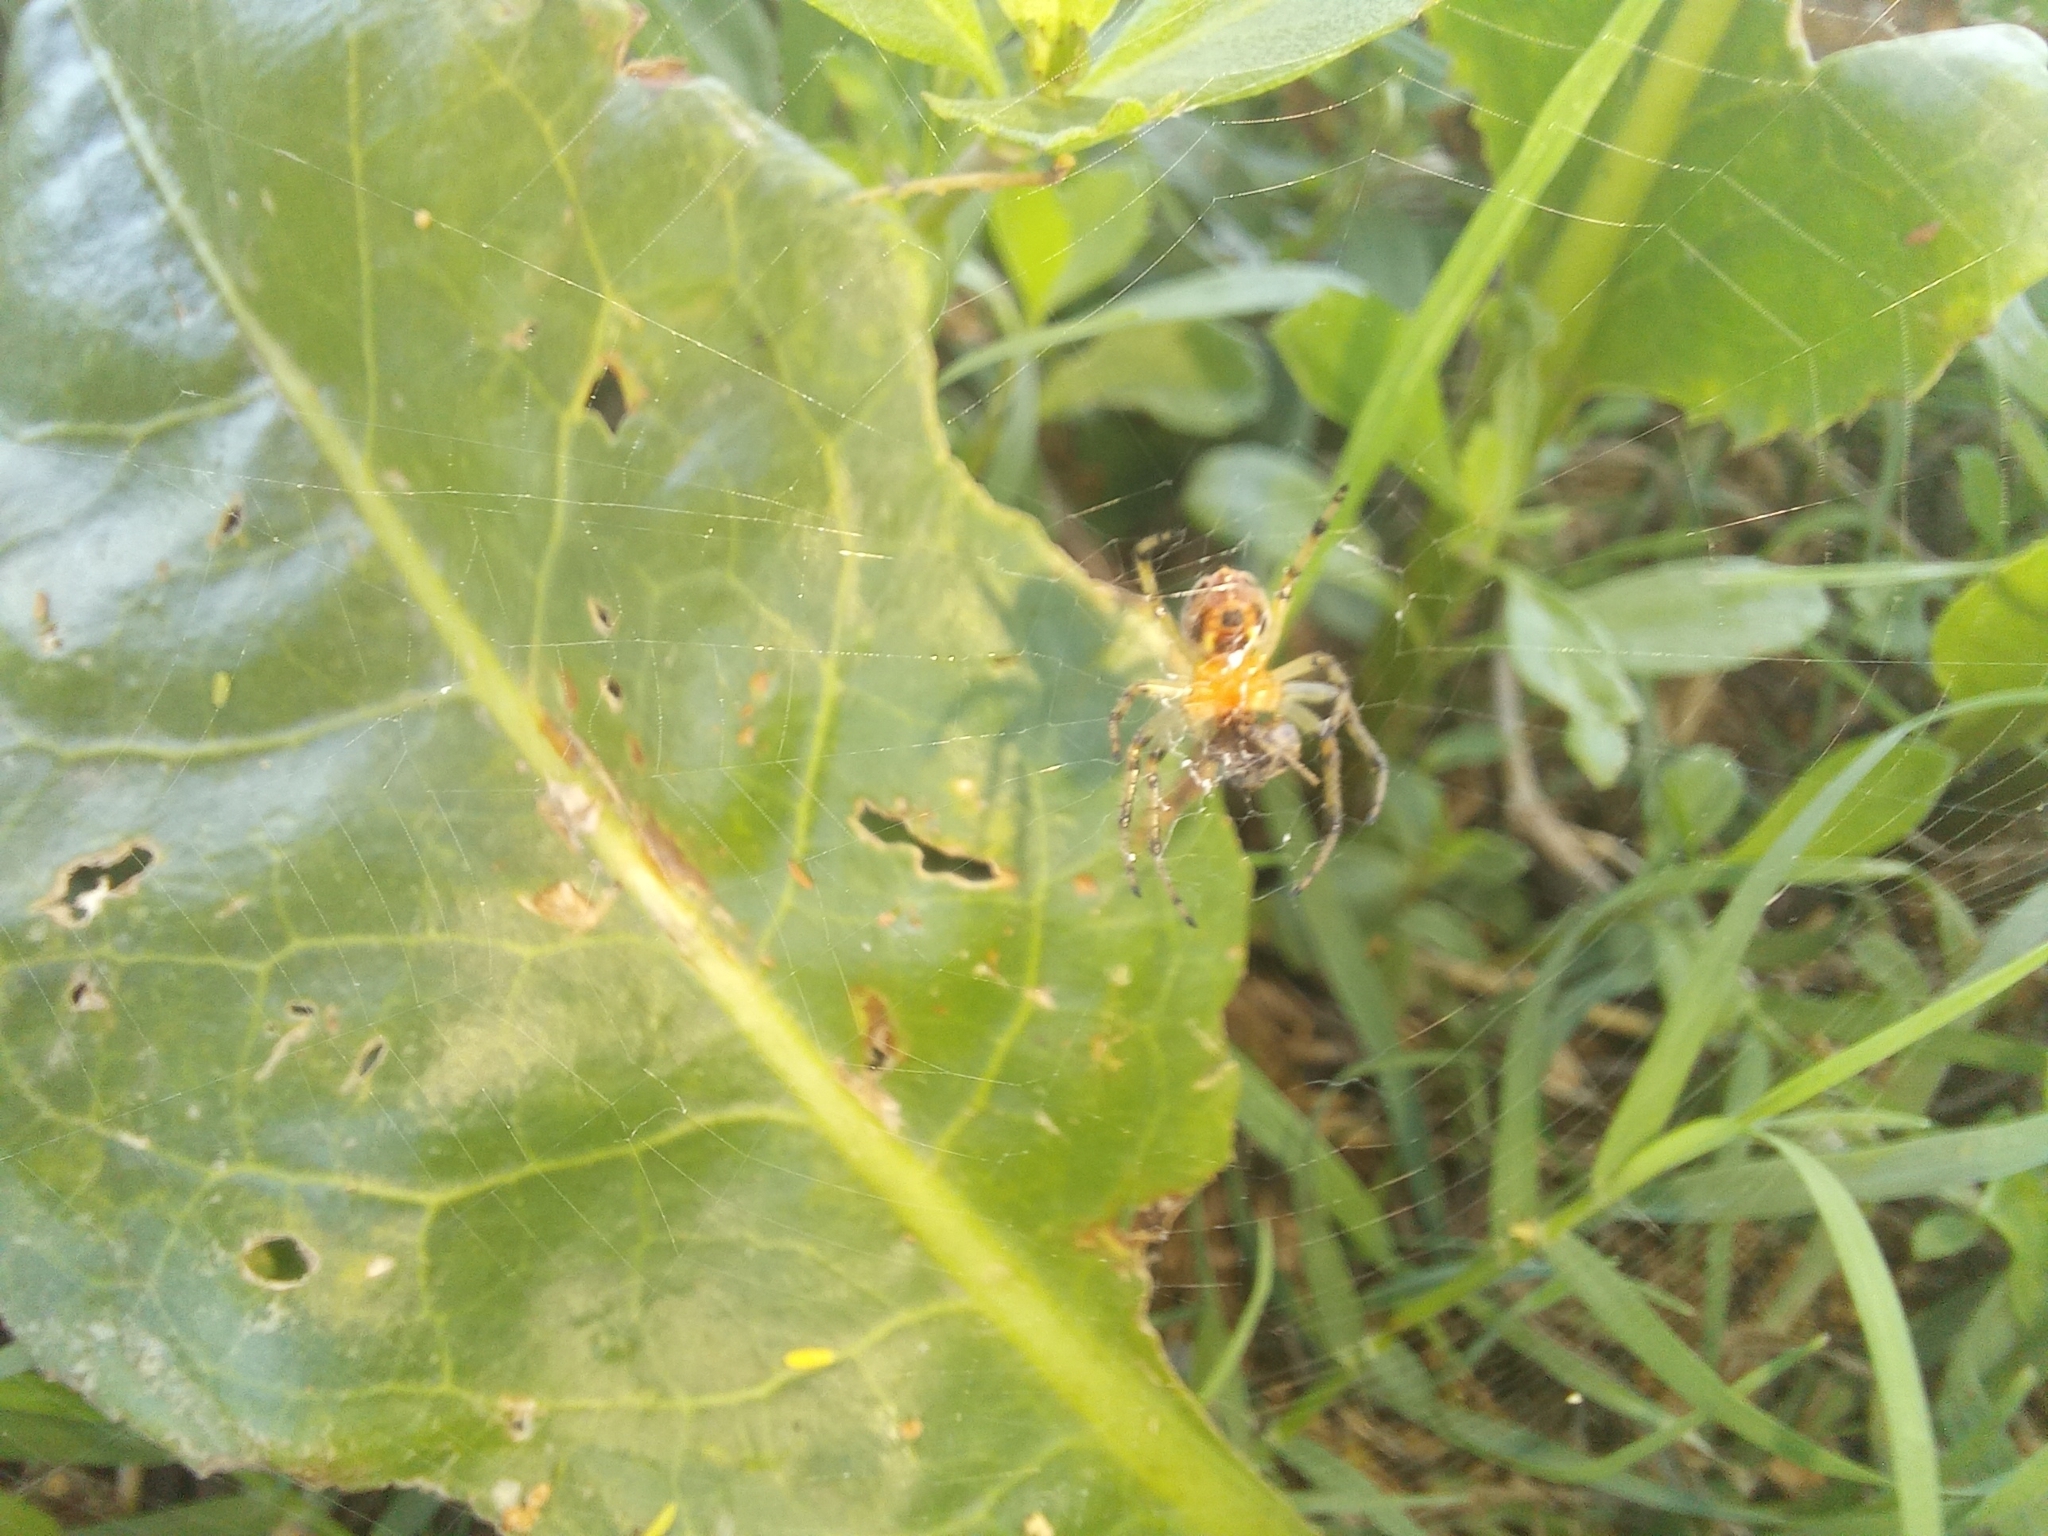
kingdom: Animalia
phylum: Arthropoda
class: Arachnida
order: Araneae
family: Araneidae
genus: Alpaida
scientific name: Alpaida veniliae
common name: Orb weavers
